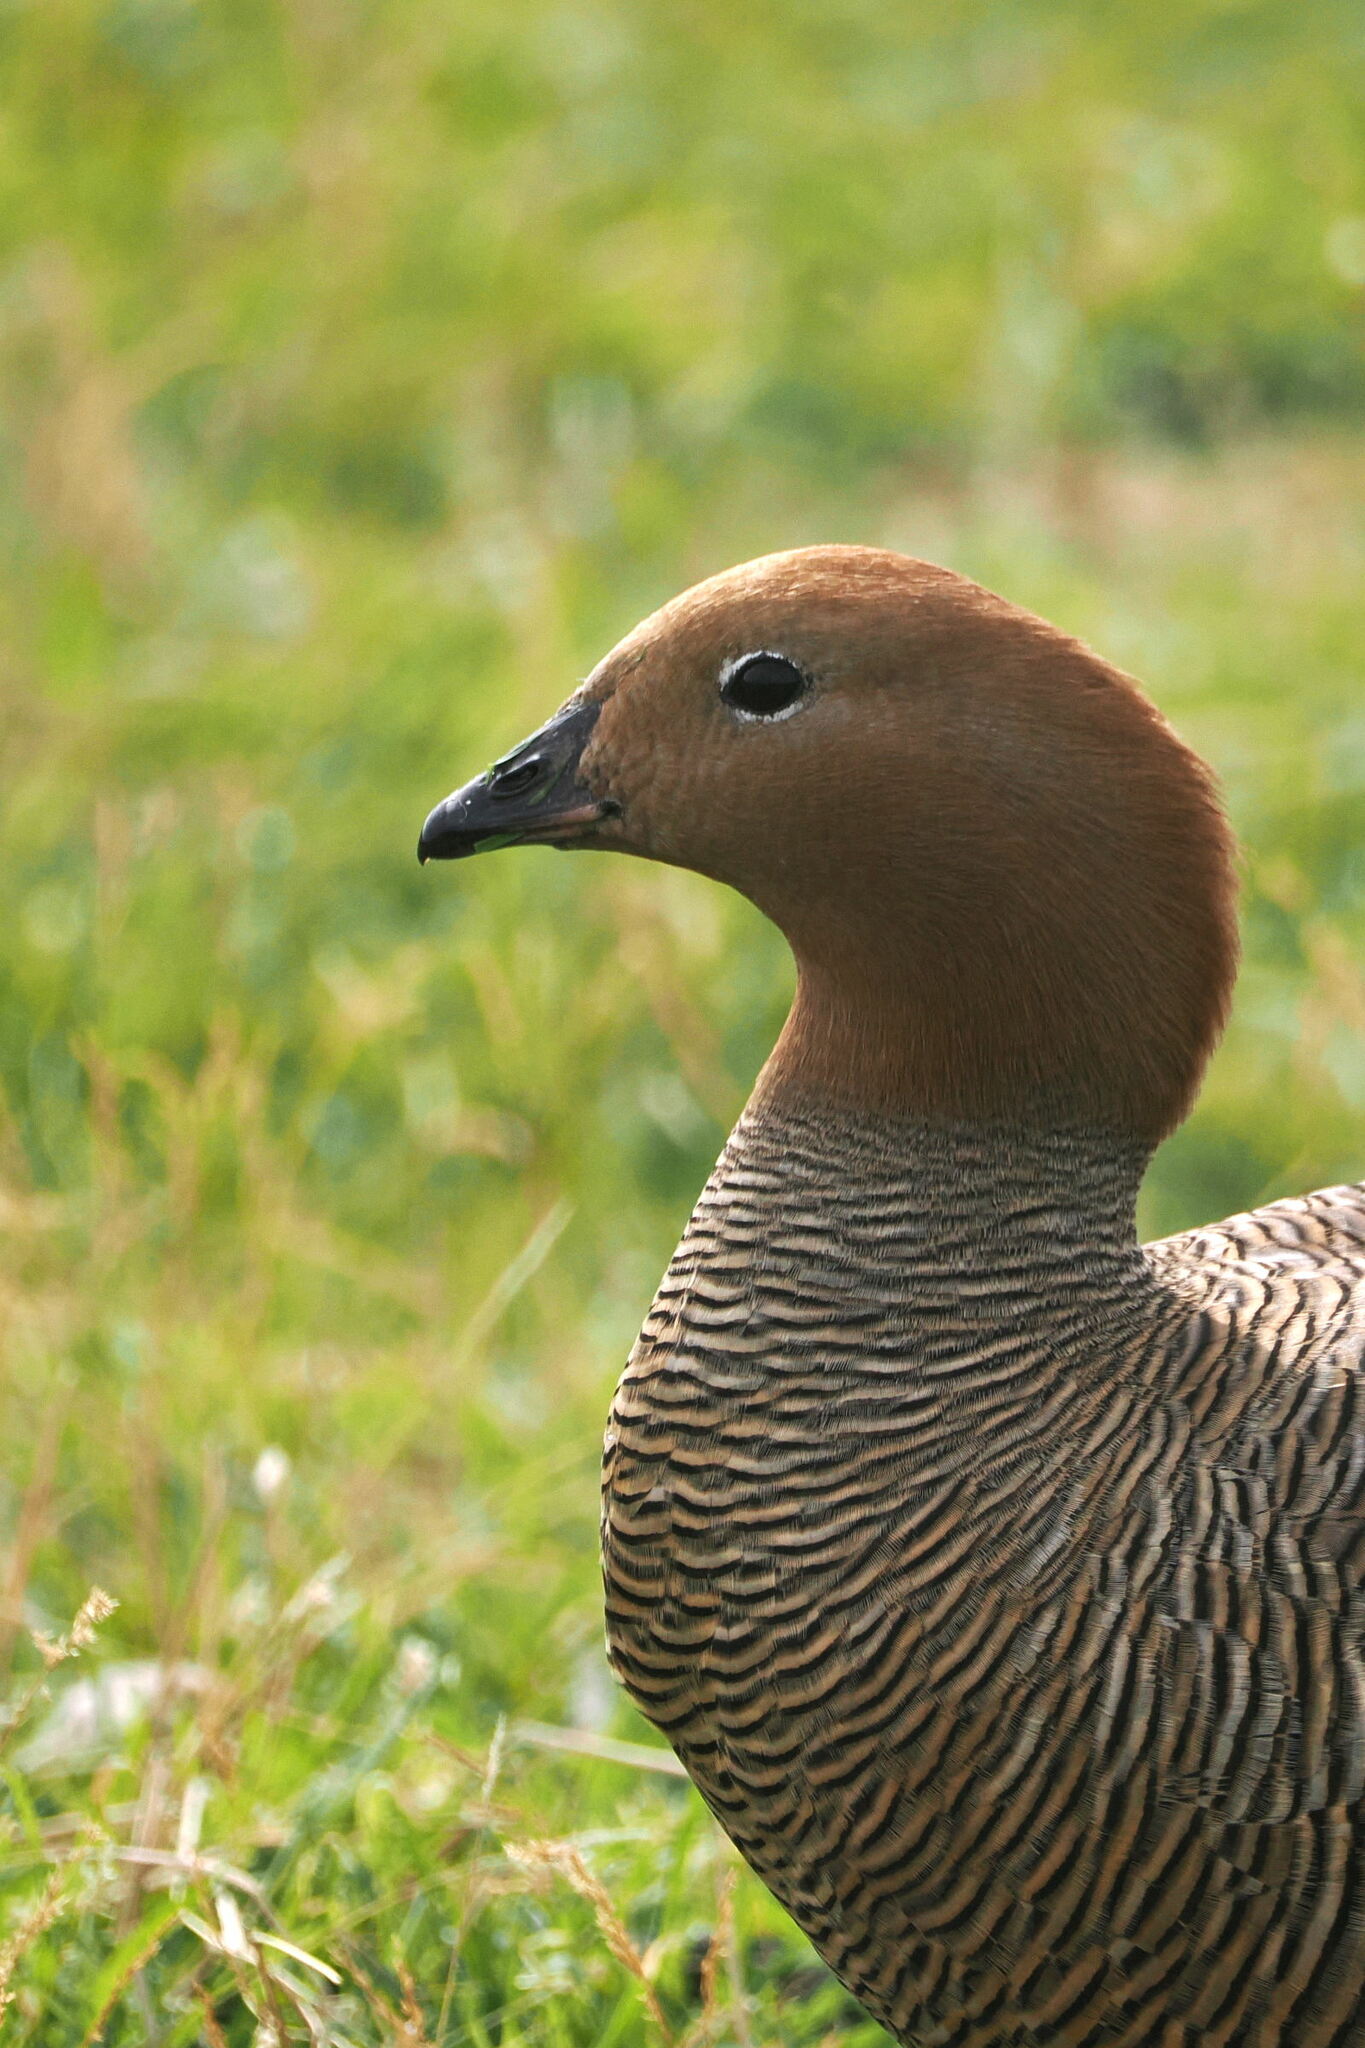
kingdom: Animalia
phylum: Chordata
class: Aves
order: Anseriformes
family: Anatidae
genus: Chloephaga
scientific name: Chloephaga rubidiceps
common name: Ruddy-headed goose
